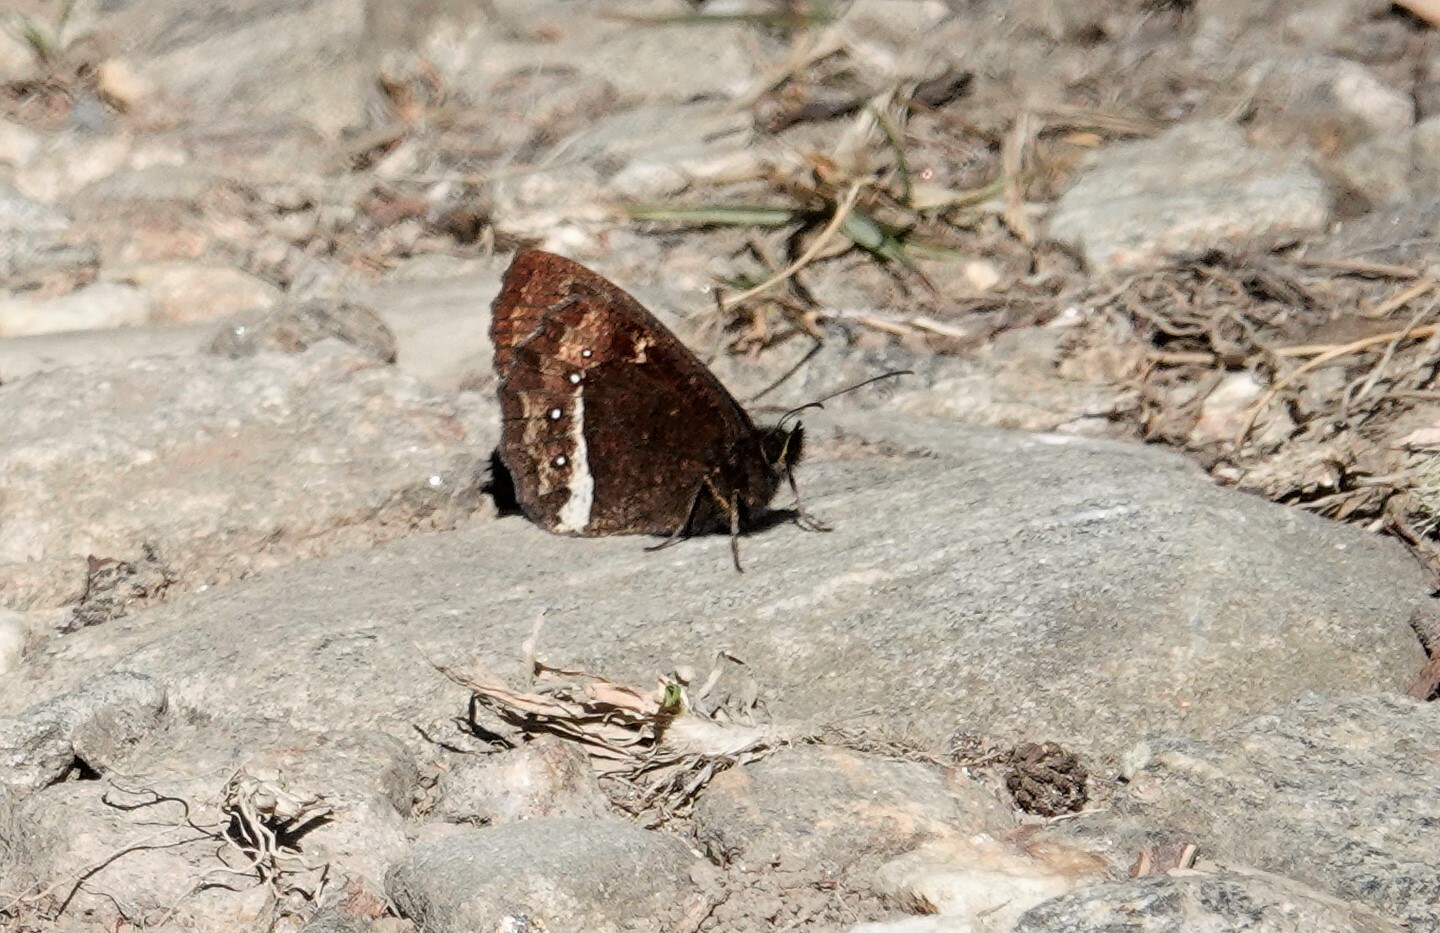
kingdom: Animalia
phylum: Arthropoda
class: Insecta
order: Lepidoptera
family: Nymphalidae
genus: Pedaliodes
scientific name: Pedaliodes phazania
